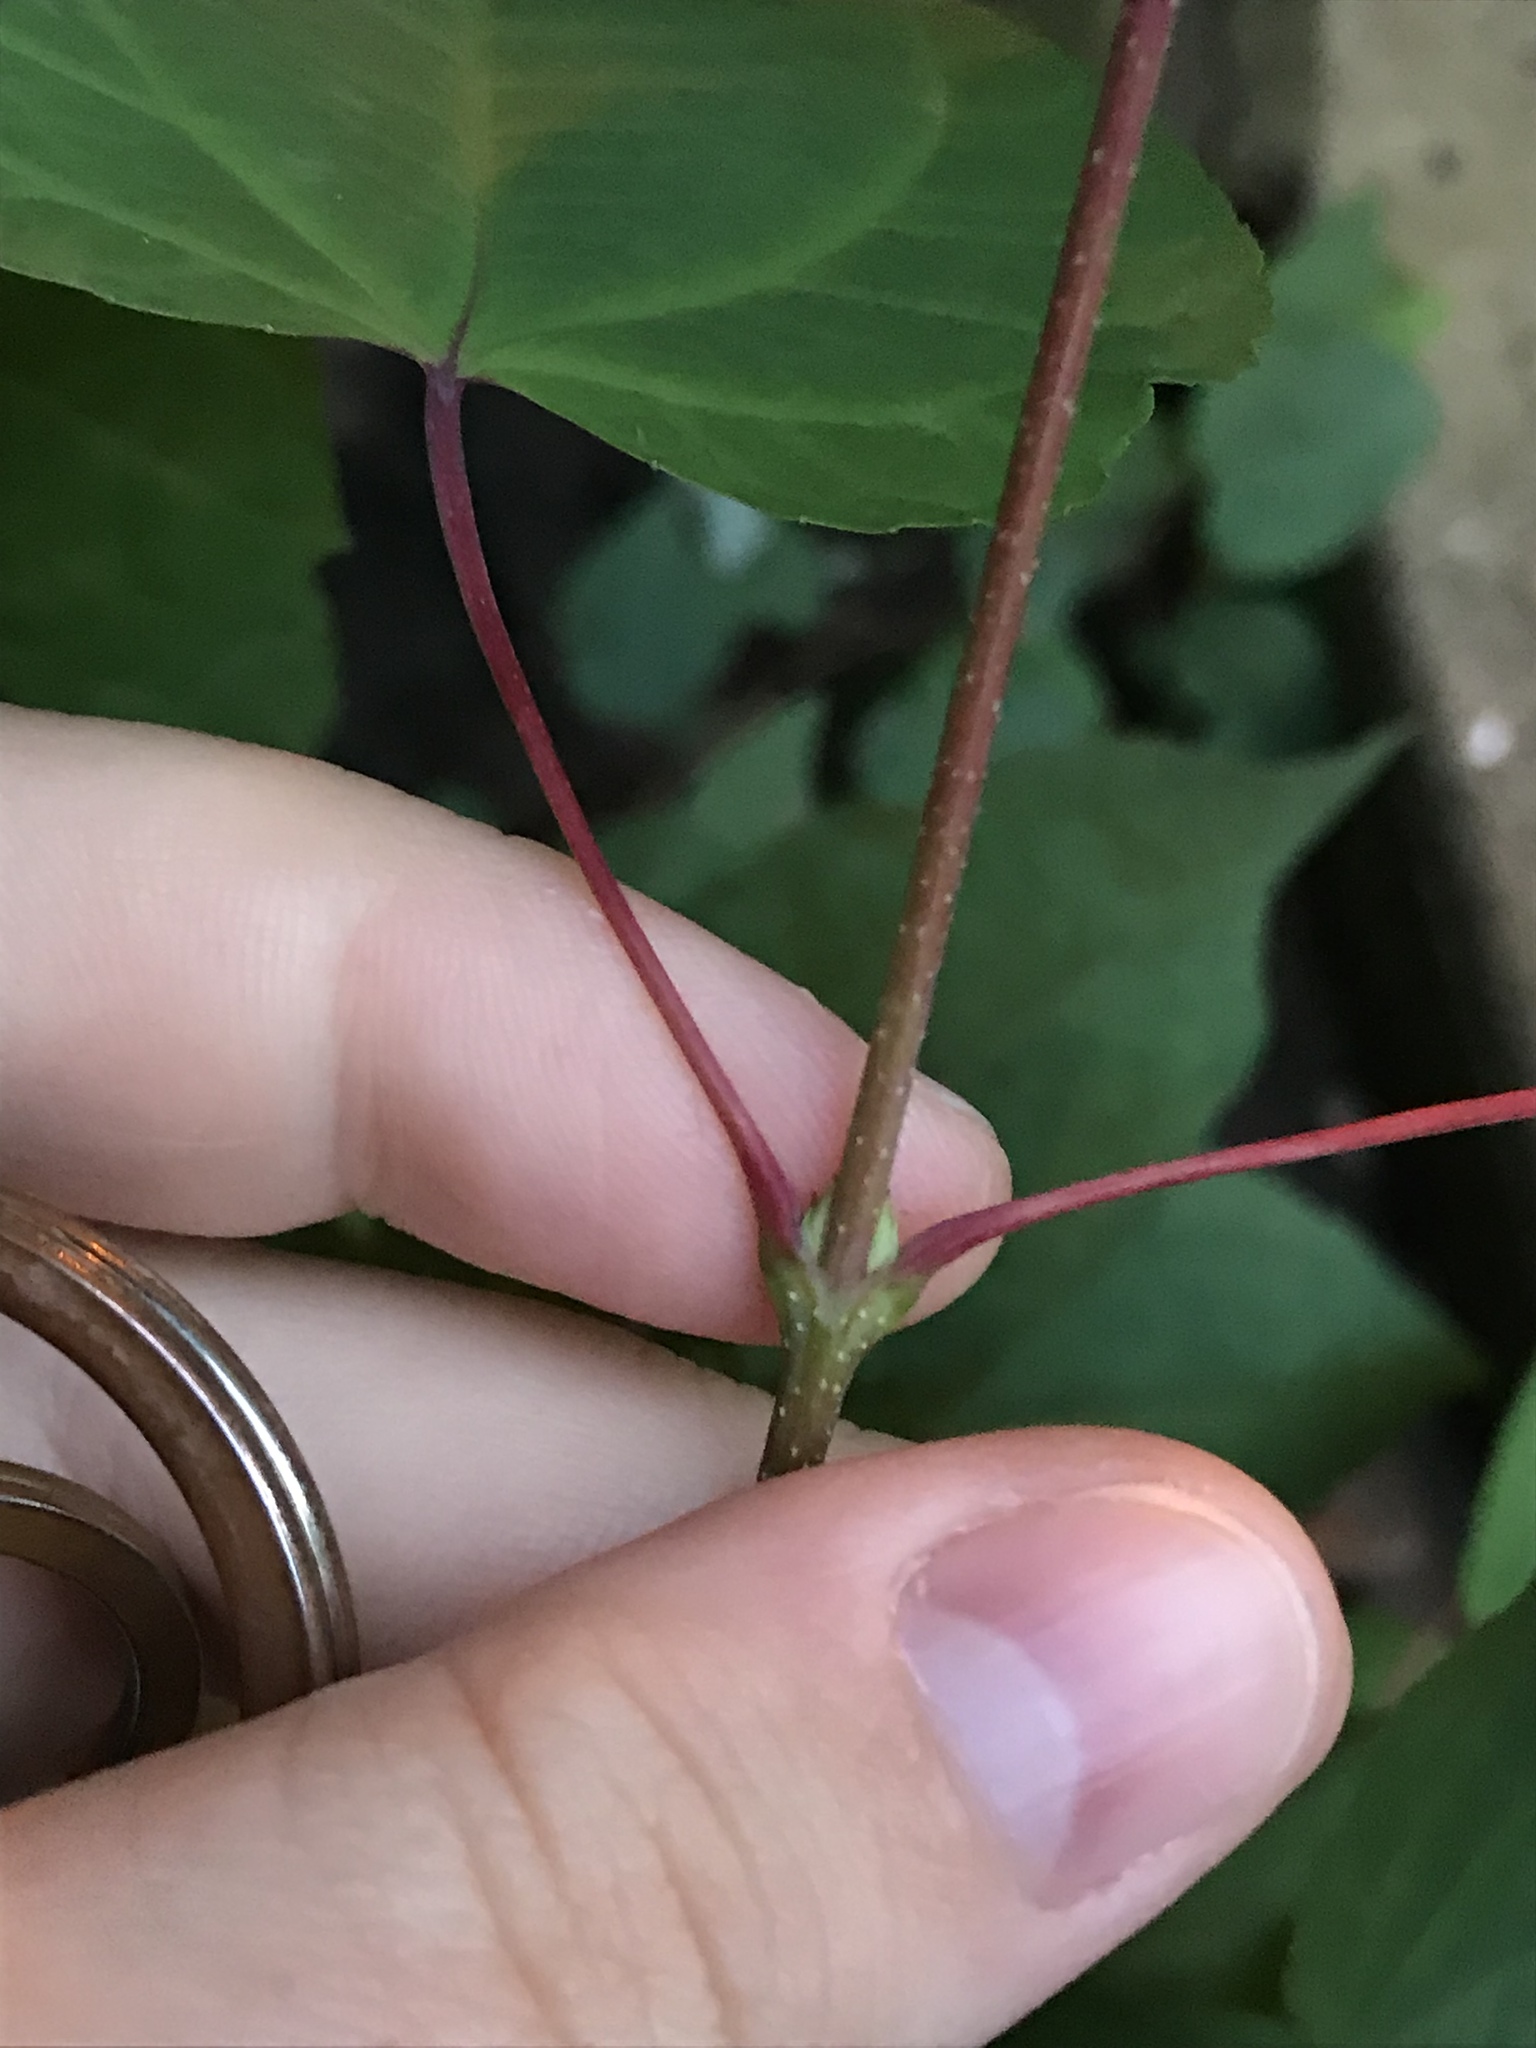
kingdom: Plantae
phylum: Tracheophyta
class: Magnoliopsida
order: Saxifragales
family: Cercidiphyllaceae
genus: Cercidiphyllum
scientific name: Cercidiphyllum japonicum
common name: Katsura tree
